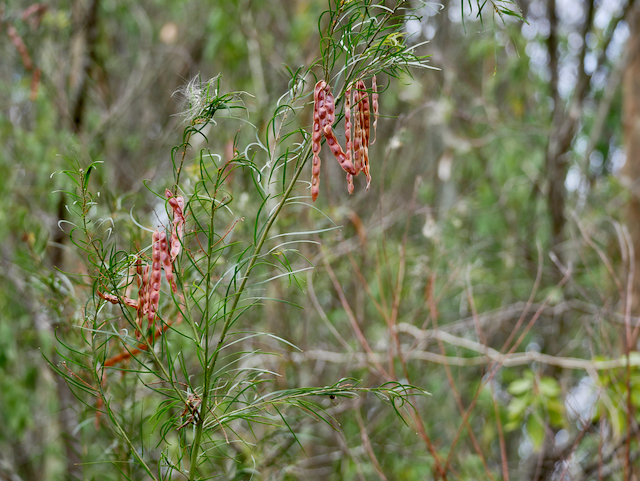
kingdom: Plantae
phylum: Tracheophyta
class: Magnoliopsida
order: Fabales
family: Fabaceae
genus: Acacia
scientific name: Acacia fimbriata
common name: Brisbane golden wattle
